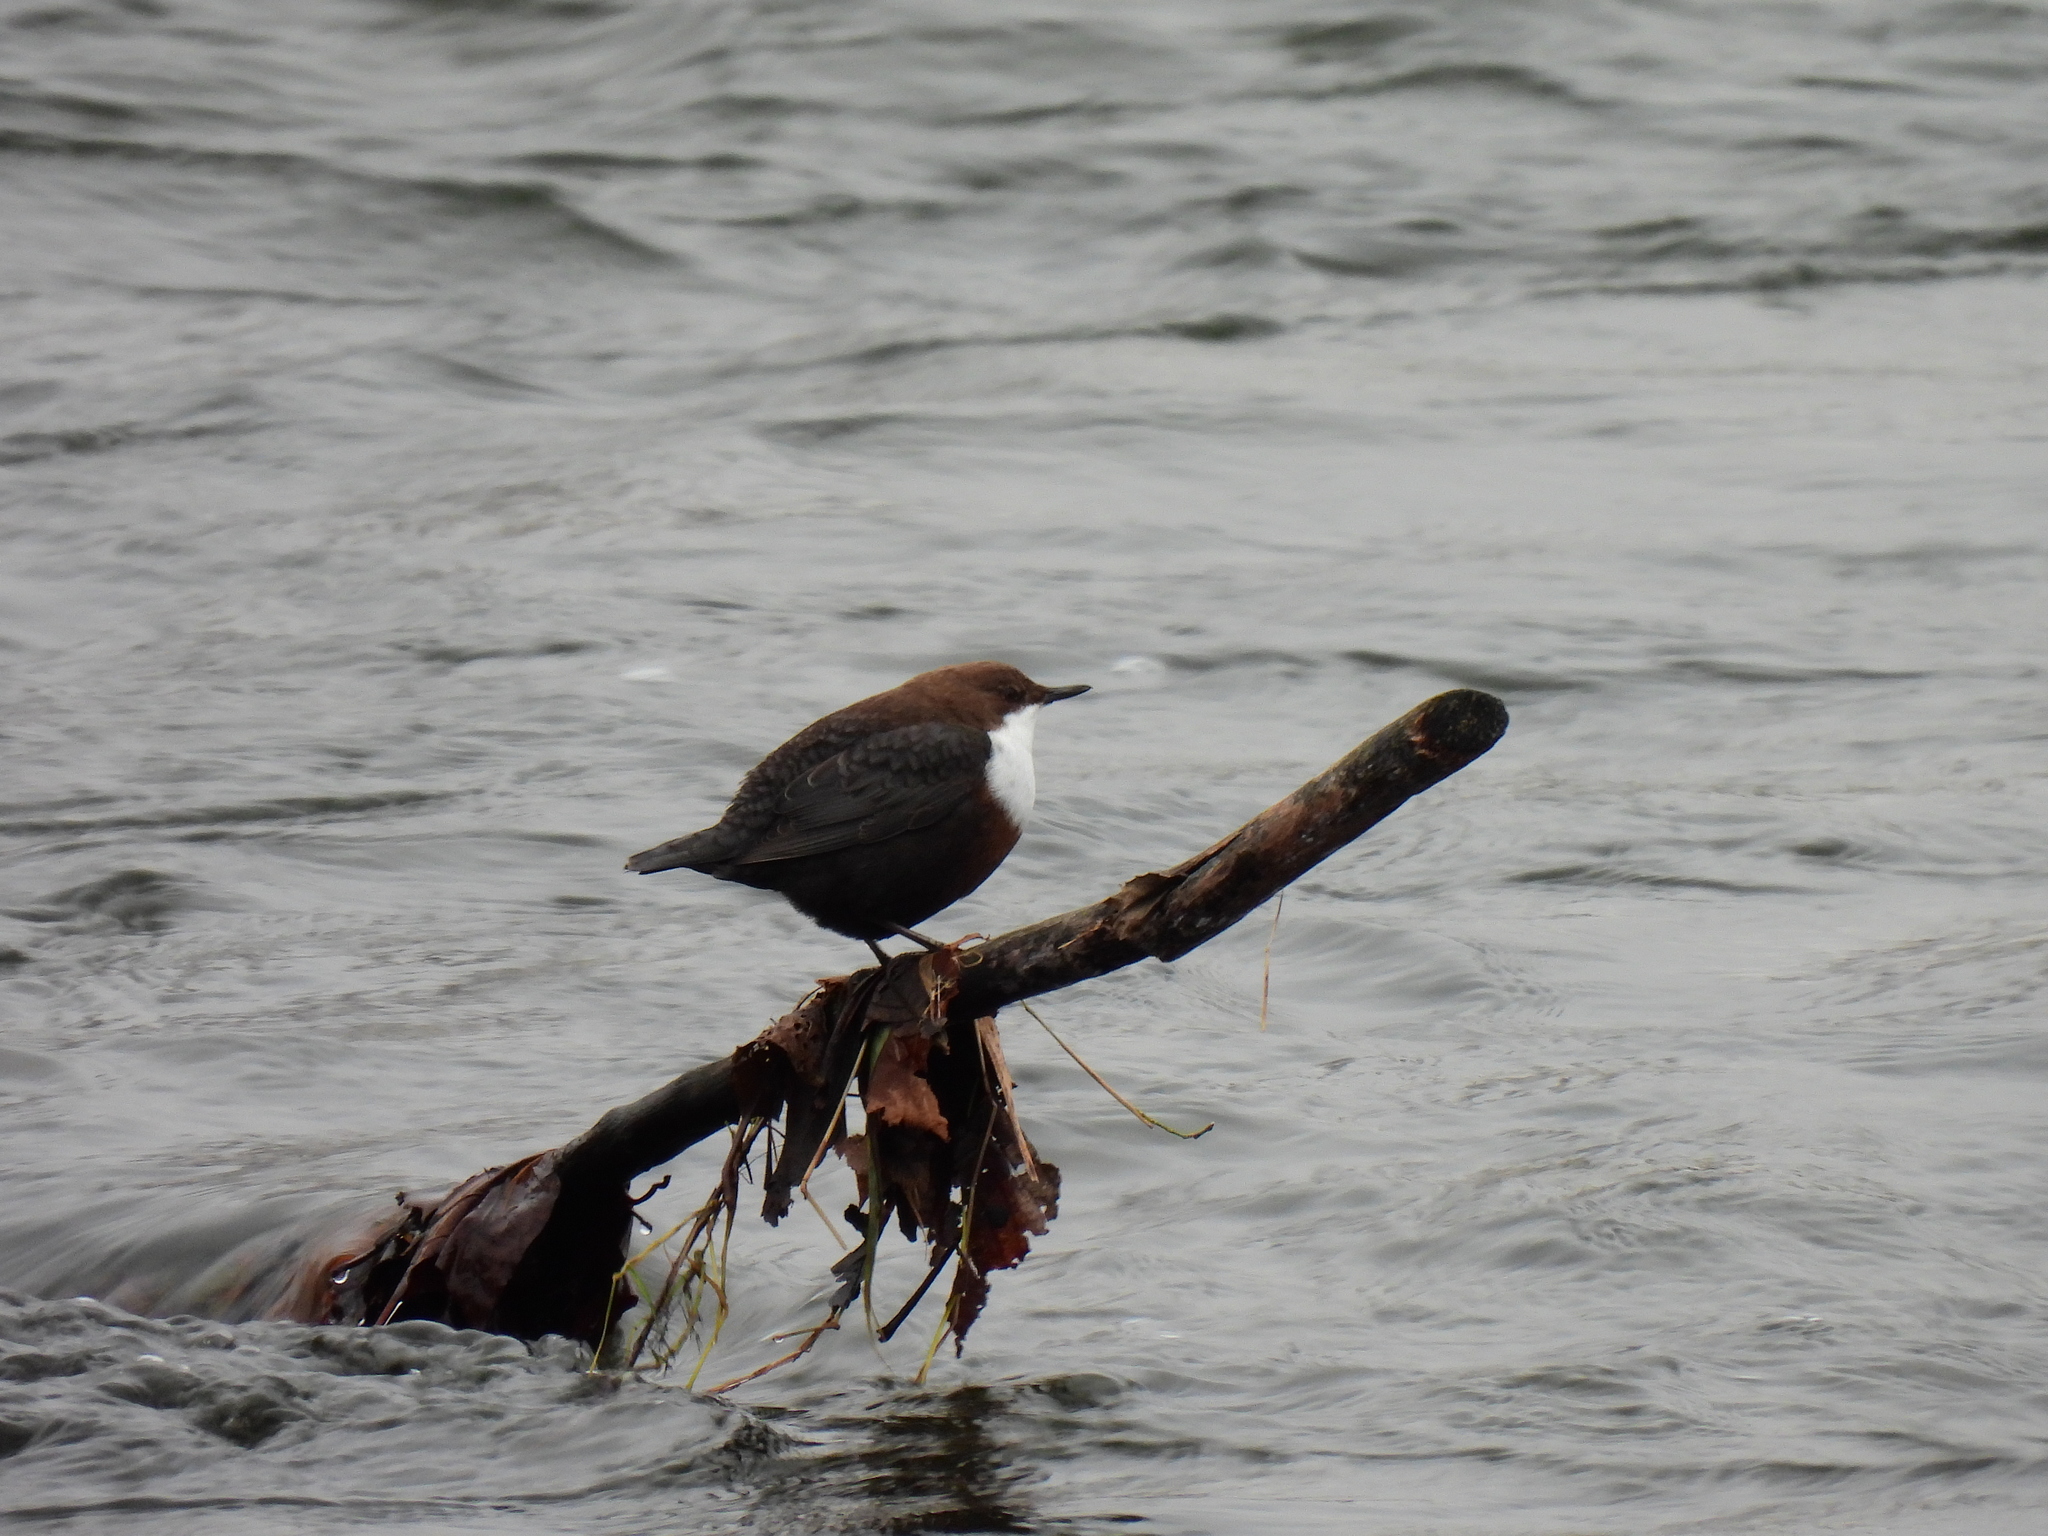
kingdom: Animalia
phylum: Chordata
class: Aves
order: Passeriformes
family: Cinclidae
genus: Cinclus
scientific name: Cinclus cinclus
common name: White-throated dipper
